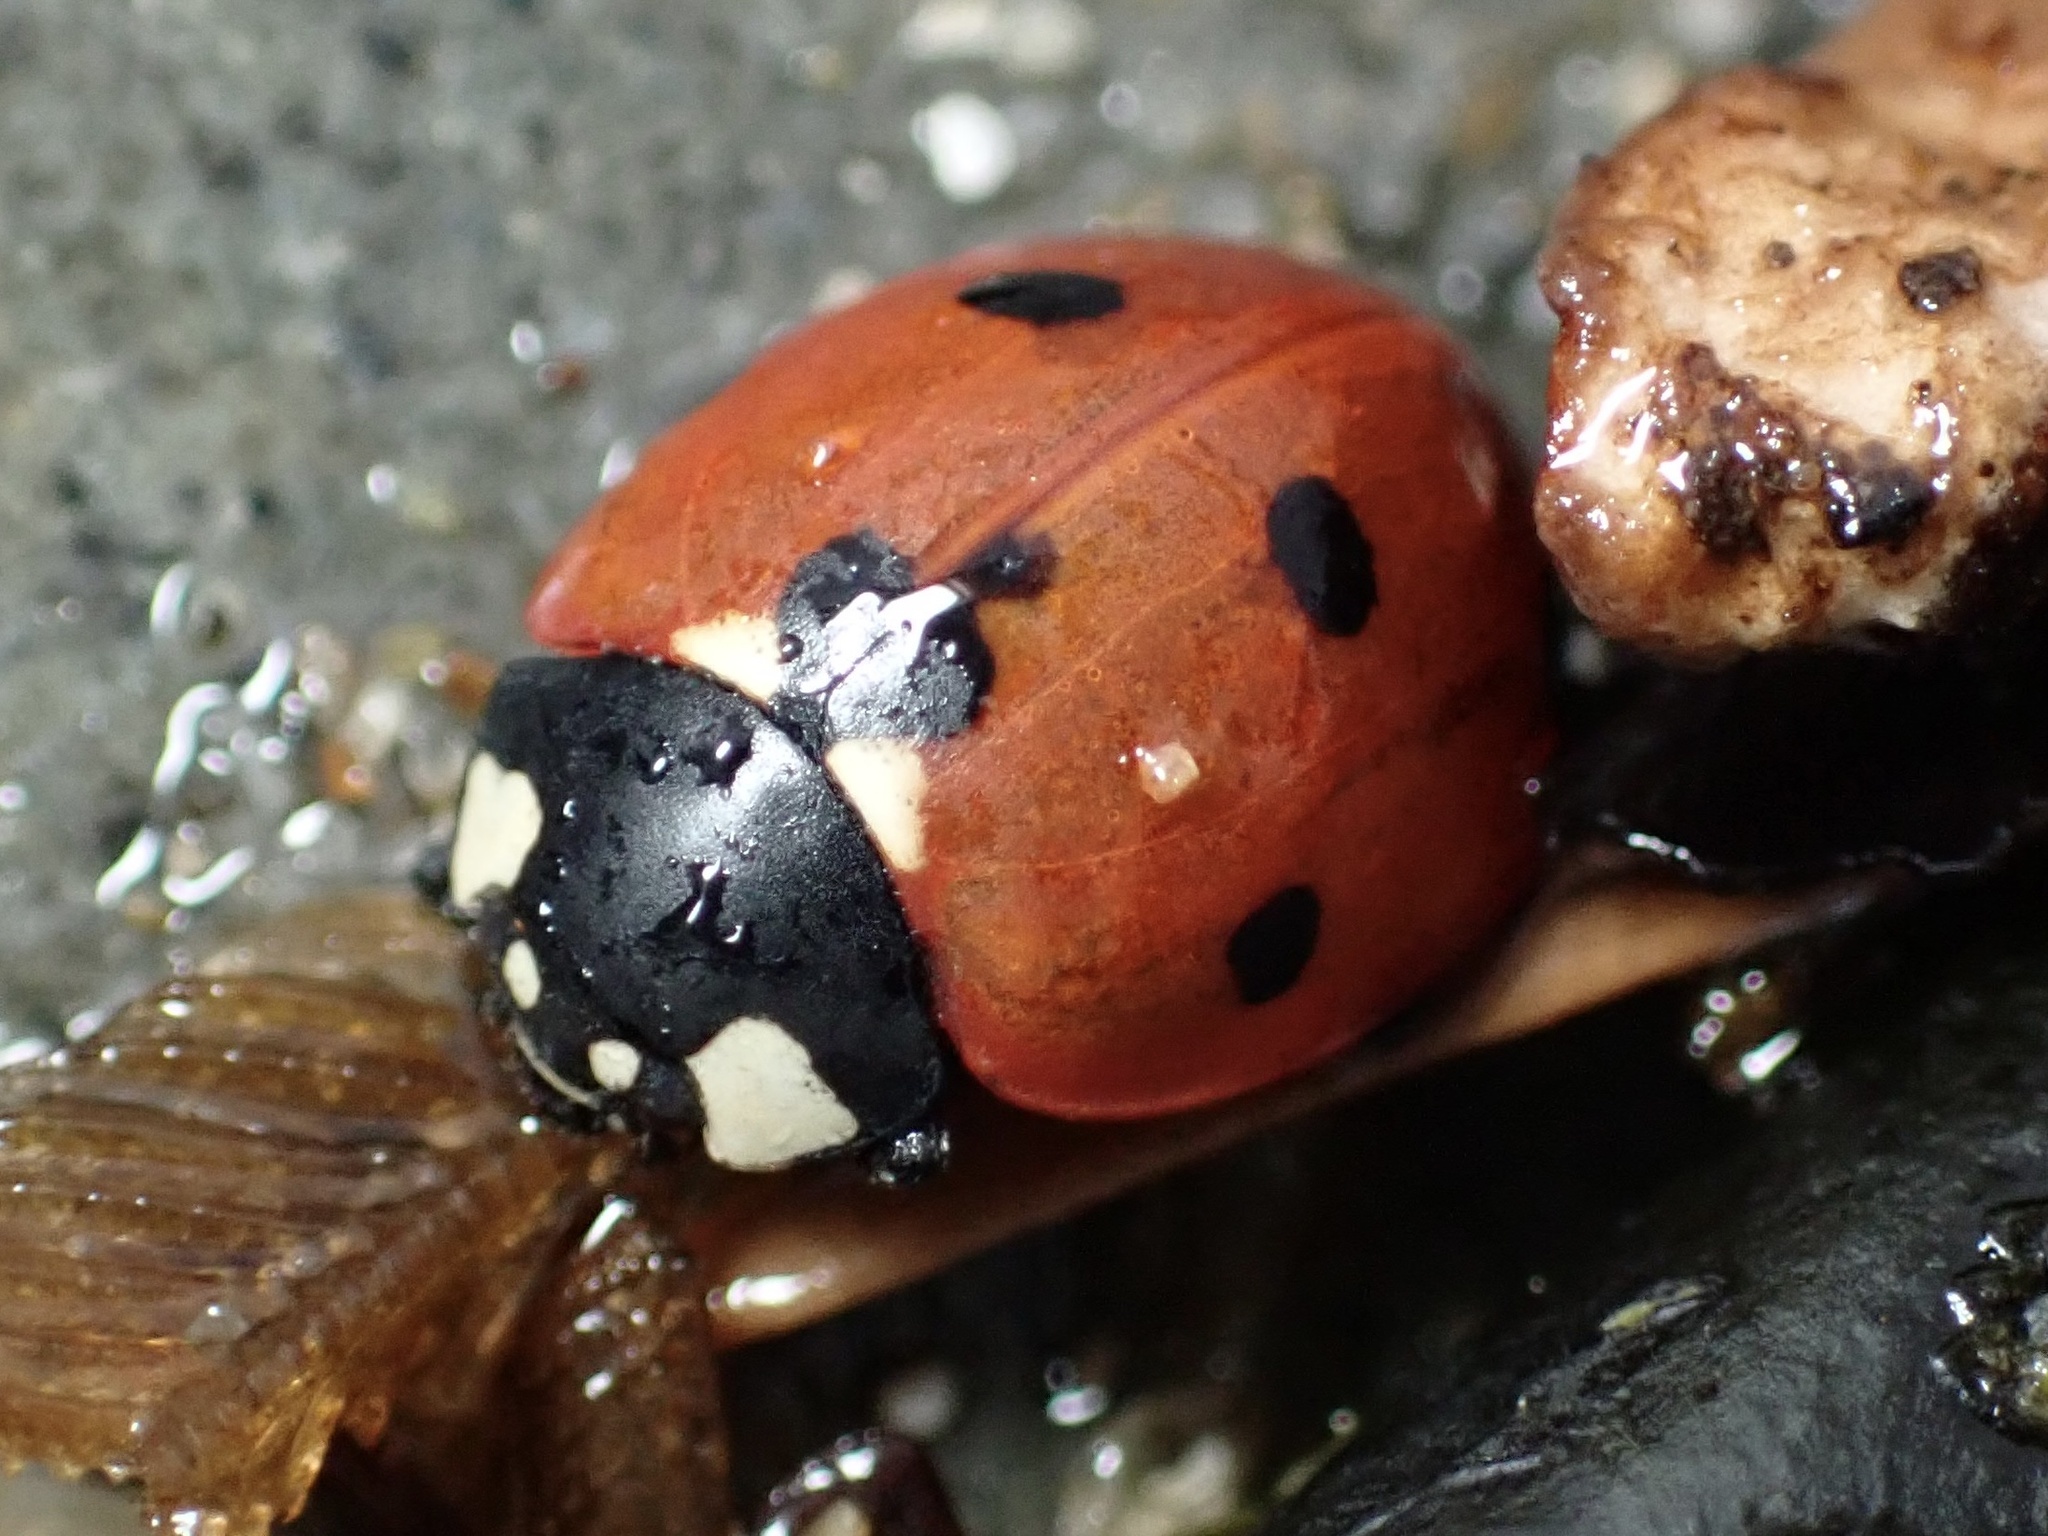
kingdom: Animalia
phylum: Arthropoda
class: Insecta
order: Coleoptera
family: Coccinellidae
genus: Coccinella
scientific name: Coccinella septempunctata
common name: Sevenspotted lady beetle
